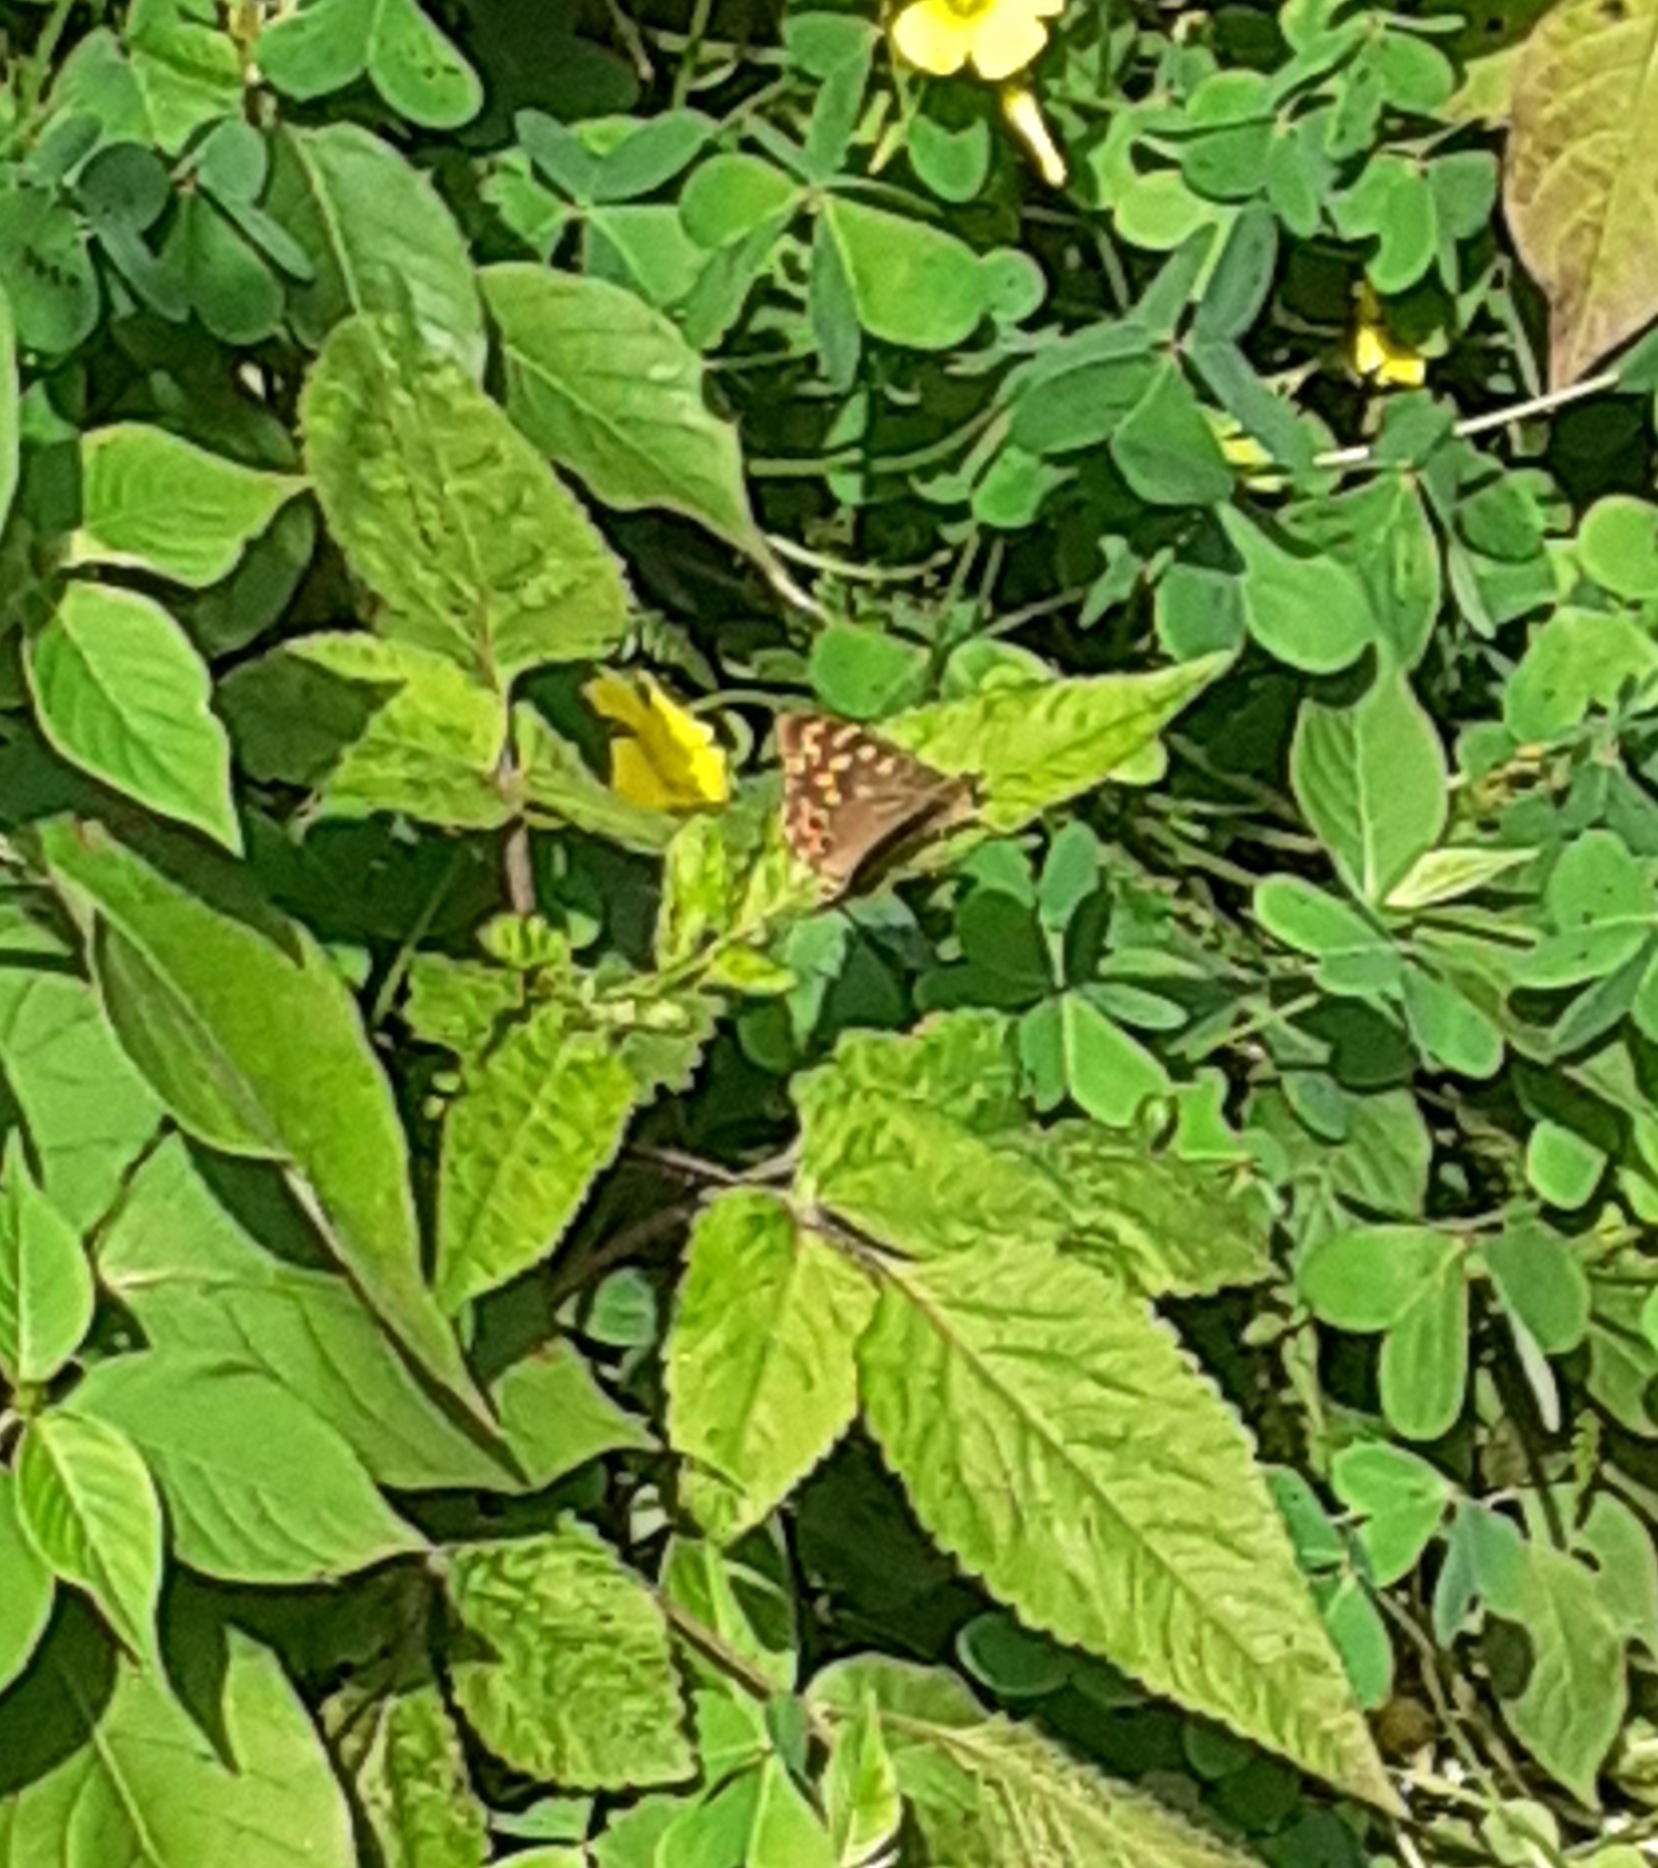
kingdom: Animalia
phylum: Arthropoda
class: Insecta
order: Lepidoptera
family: Nymphalidae
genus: Pararge
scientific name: Pararge aegeria
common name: Speckled wood
